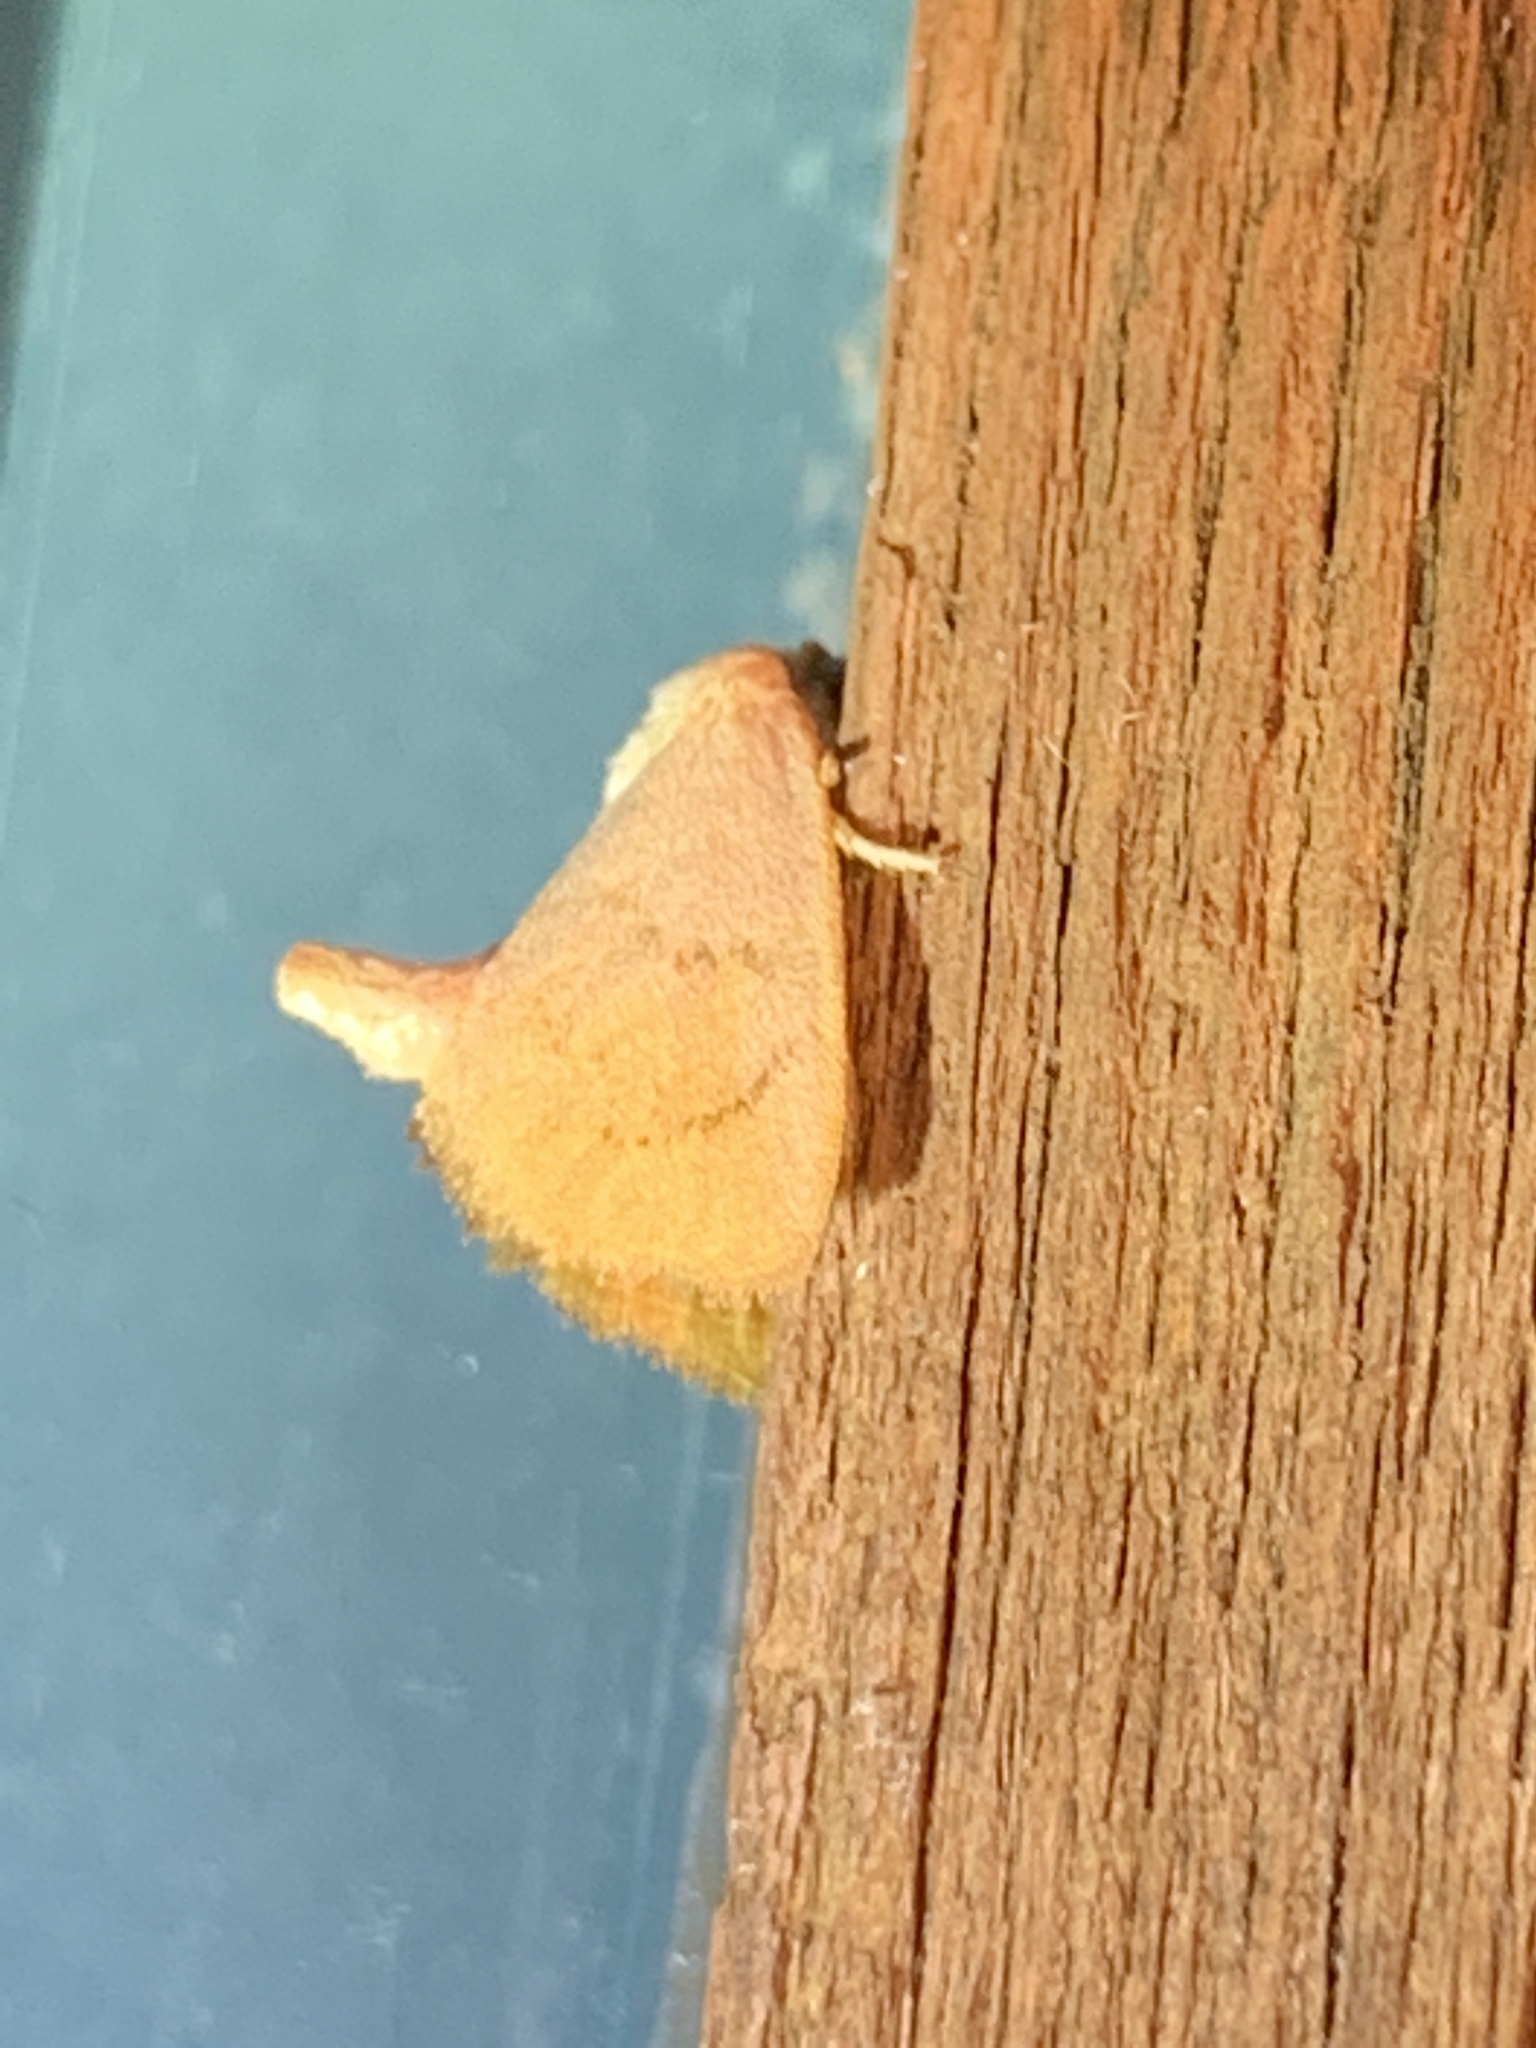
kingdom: Animalia
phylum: Arthropoda
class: Insecta
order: Lepidoptera
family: Limacodidae
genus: Tortricidia
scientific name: Tortricidia pallida
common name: Red-crossed button slug moth
